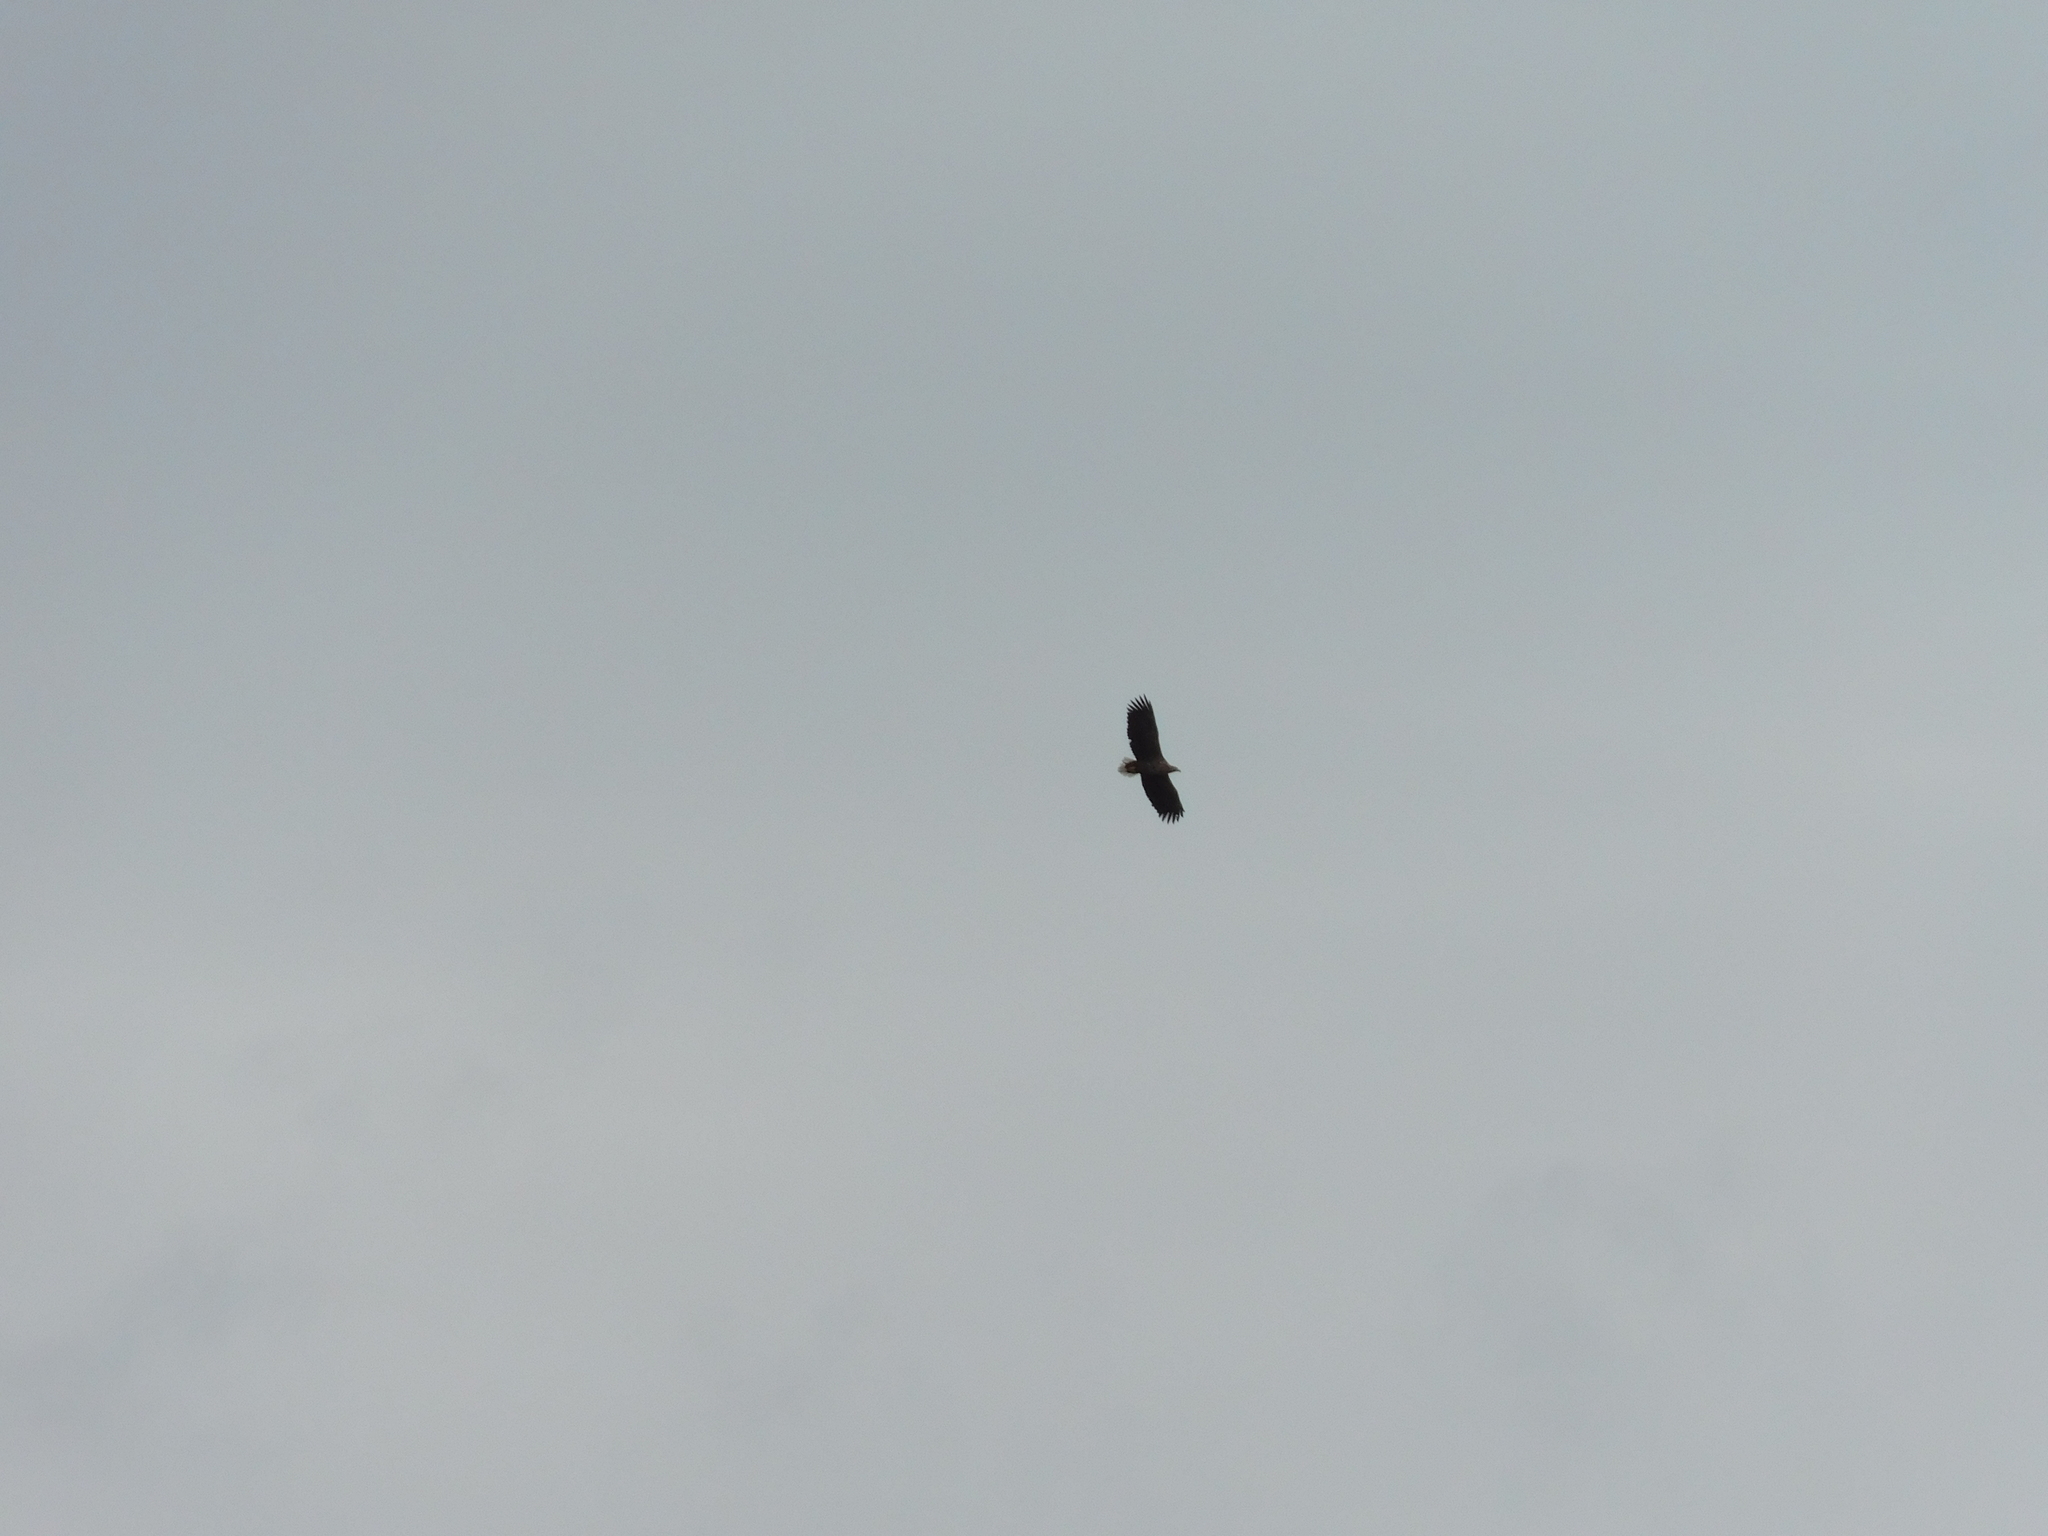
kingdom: Animalia
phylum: Chordata
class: Aves
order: Accipitriformes
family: Accipitridae
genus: Haliaeetus
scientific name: Haliaeetus albicilla
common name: White-tailed eagle
